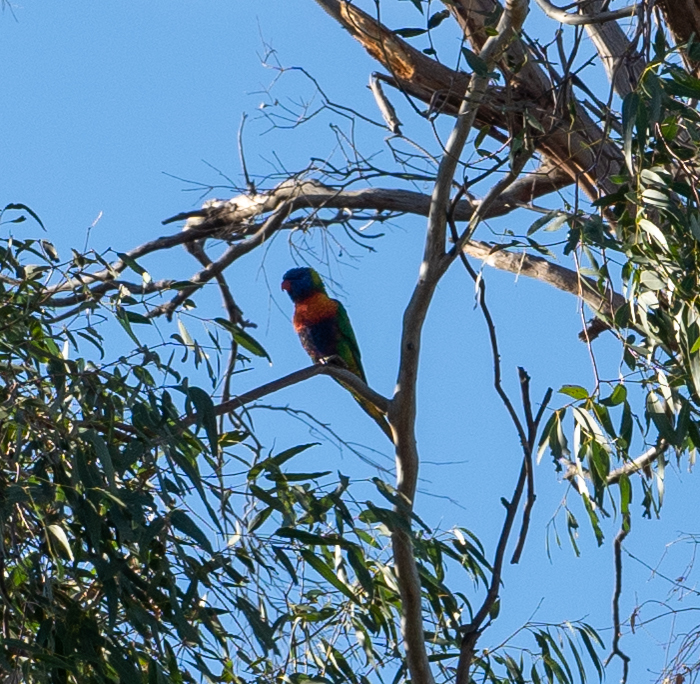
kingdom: Animalia
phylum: Chordata
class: Aves
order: Psittaciformes
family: Psittacidae
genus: Trichoglossus
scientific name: Trichoglossus haematodus
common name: Coconut lorikeet
